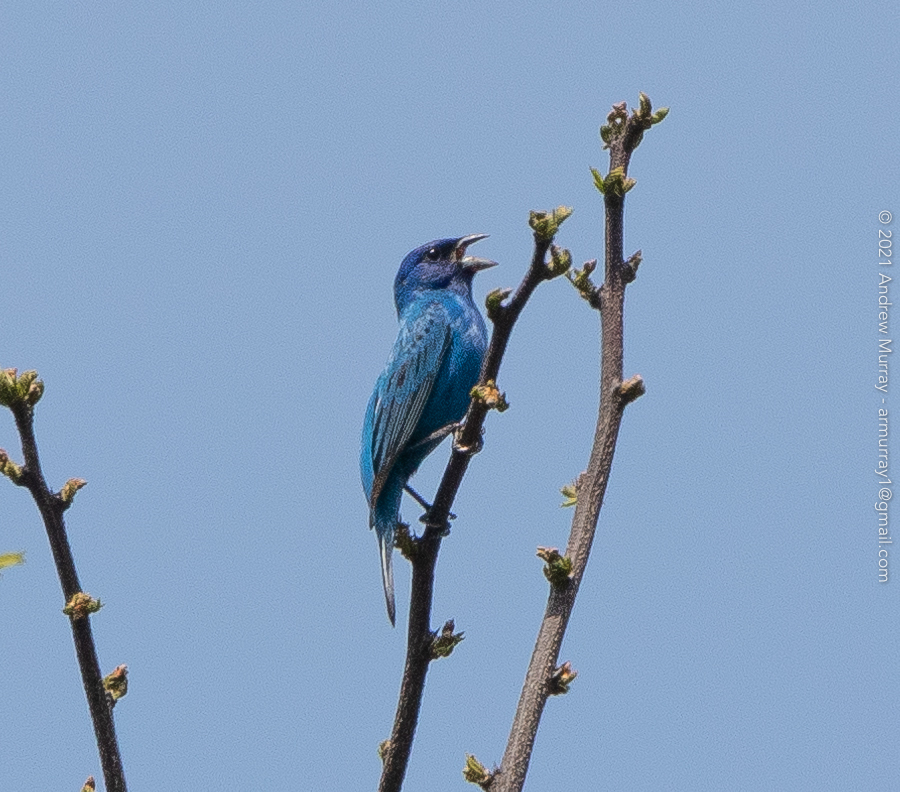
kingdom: Animalia
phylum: Chordata
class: Aves
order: Passeriformes
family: Cardinalidae
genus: Passerina
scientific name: Passerina cyanea
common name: Indigo bunting
